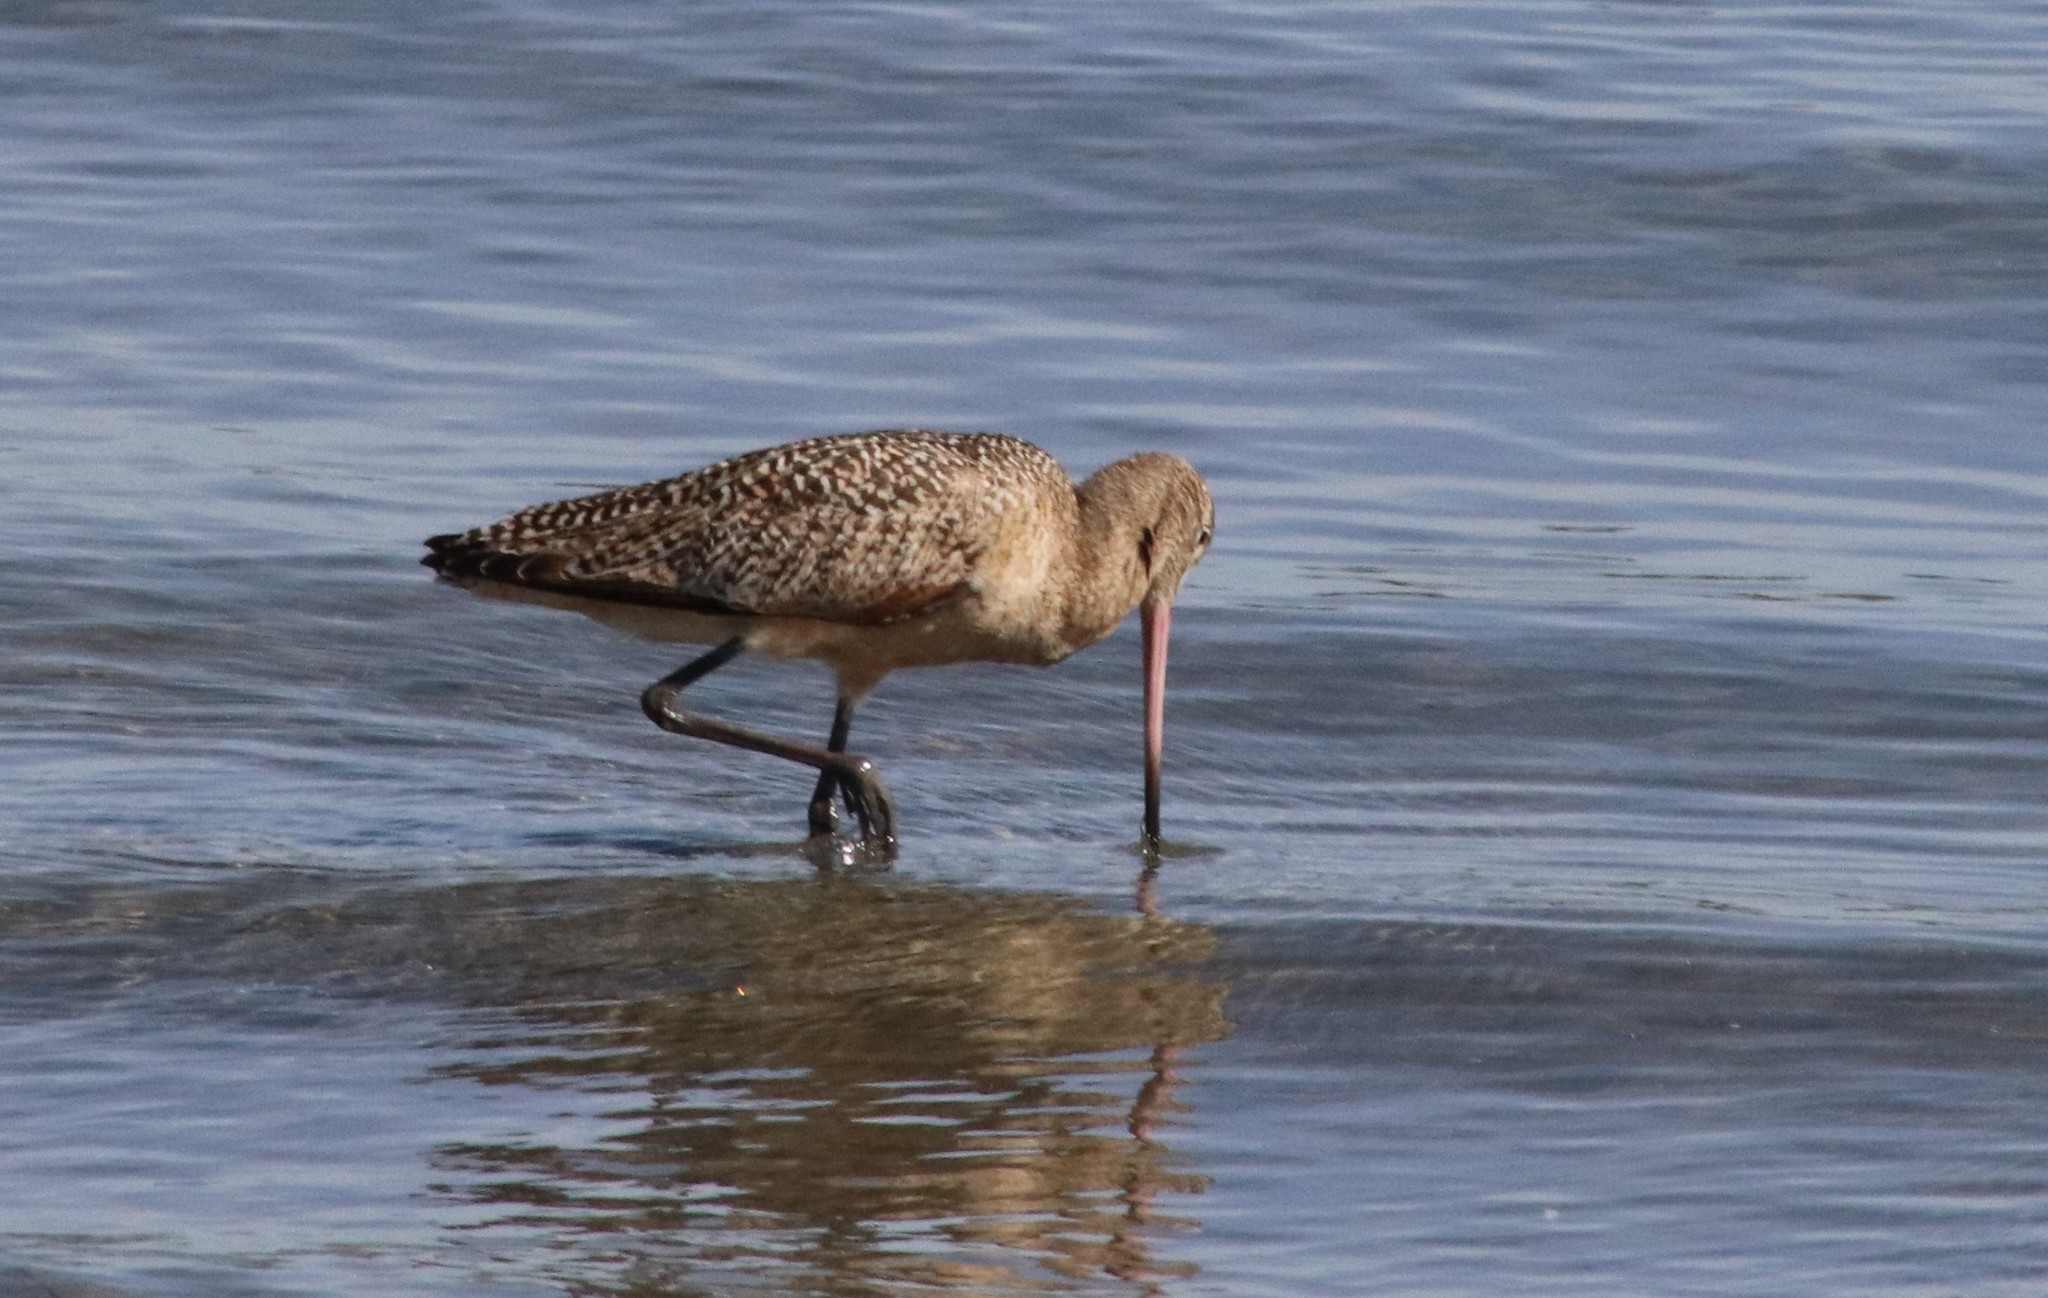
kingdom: Animalia
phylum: Chordata
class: Aves
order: Charadriiformes
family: Scolopacidae
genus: Limosa
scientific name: Limosa fedoa
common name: Marbled godwit
